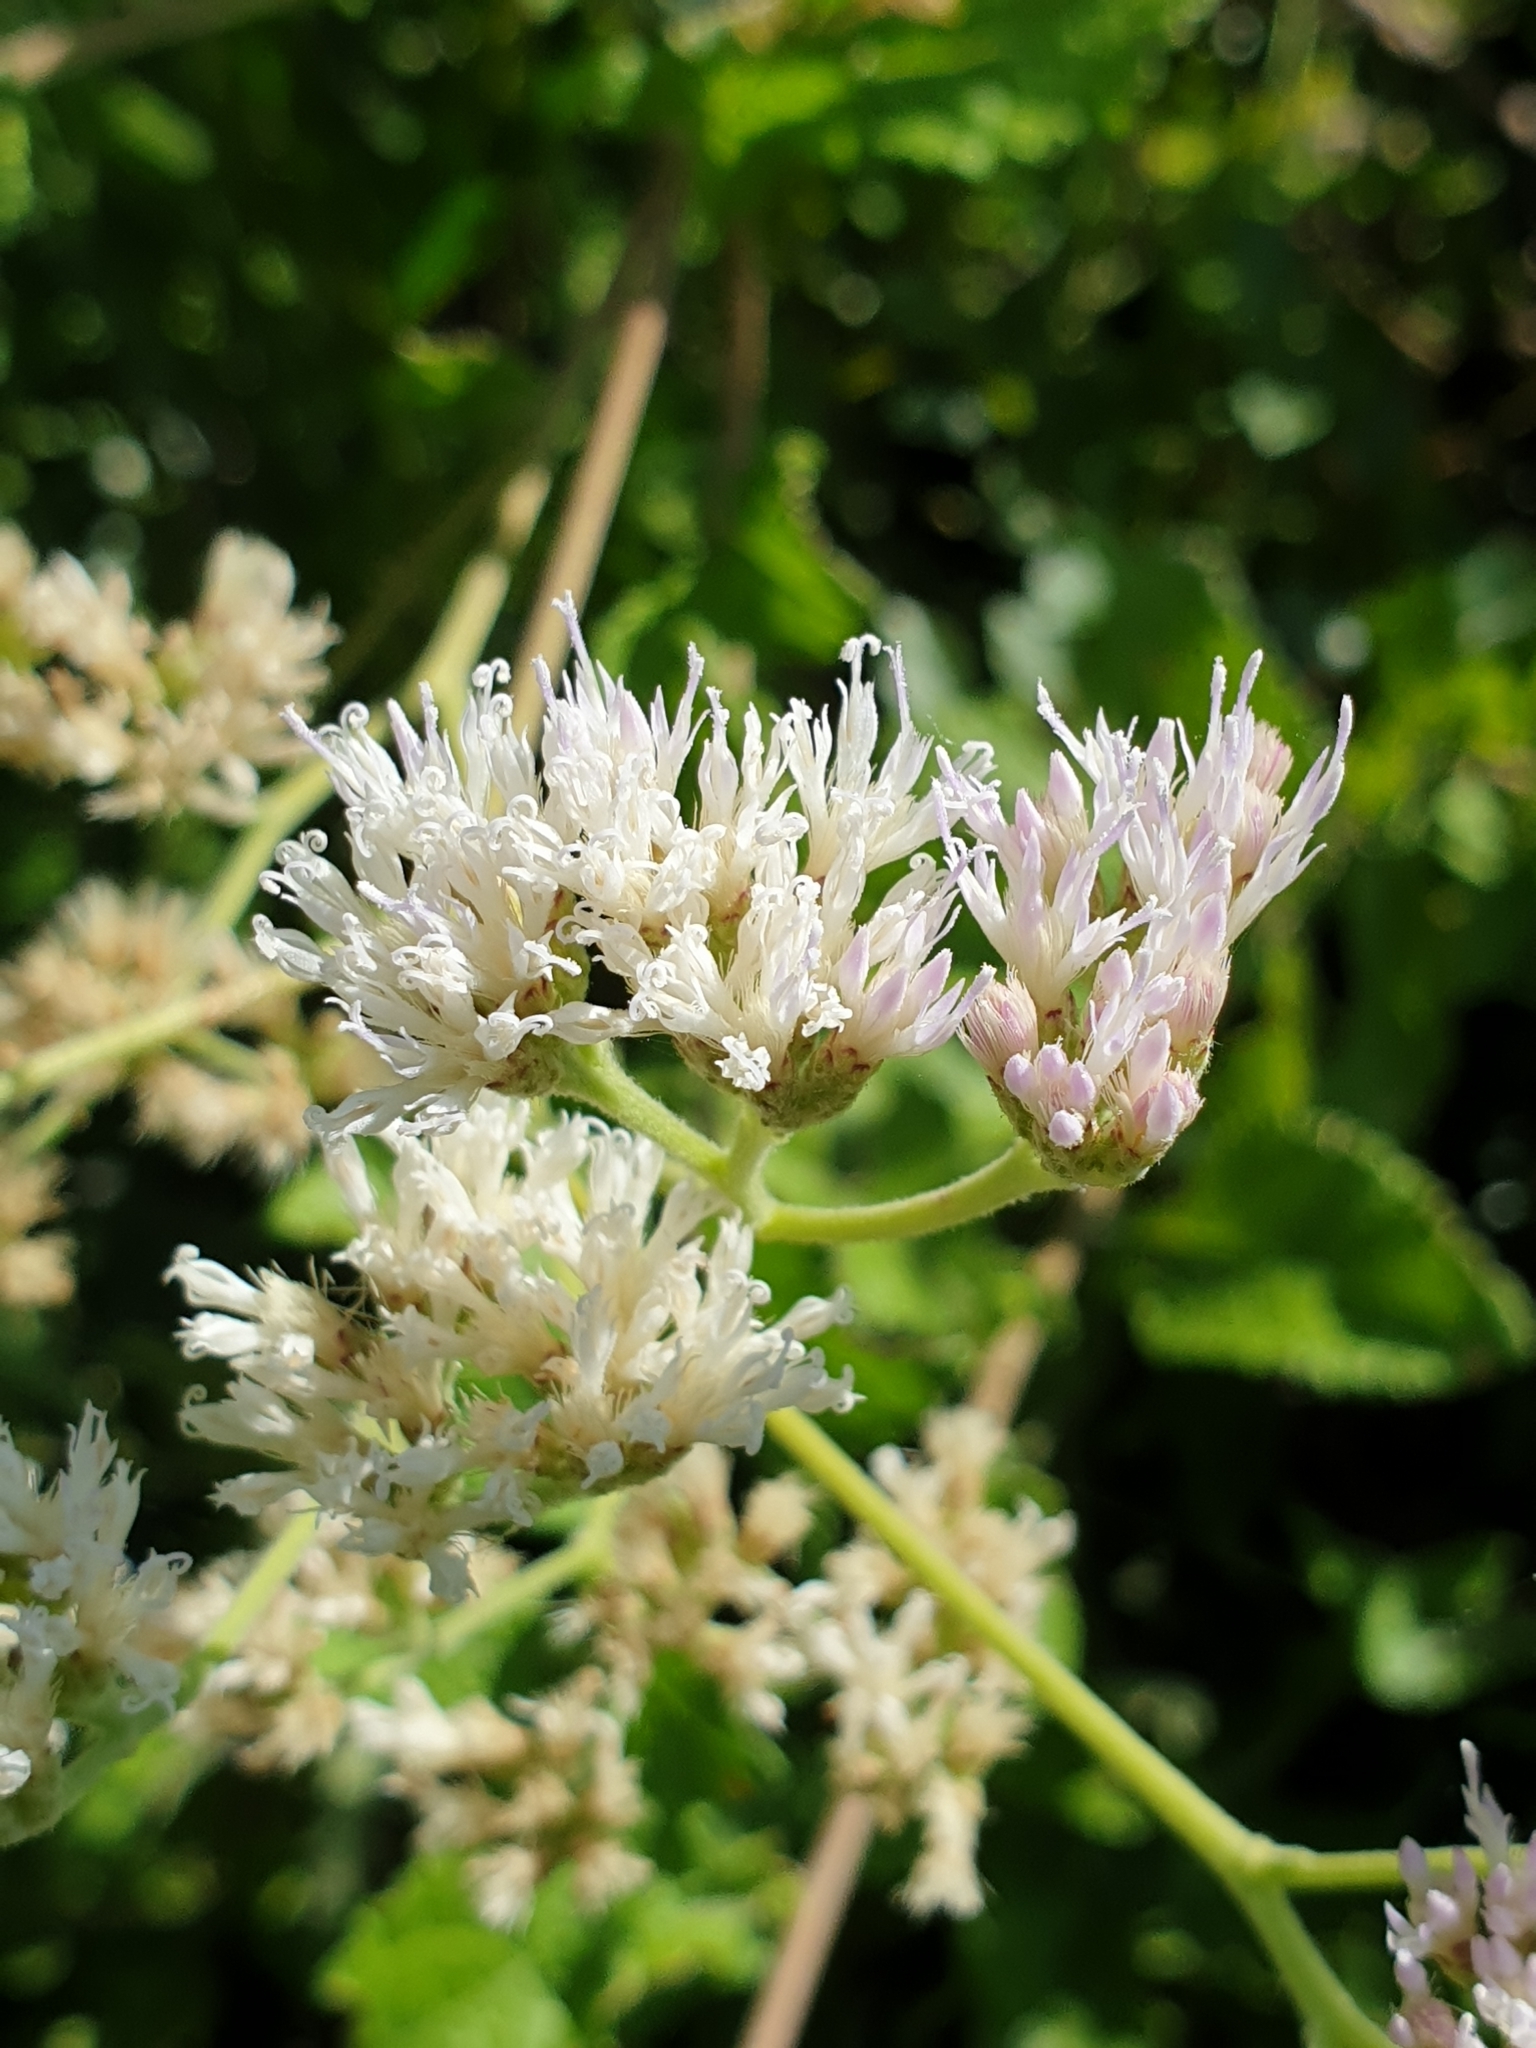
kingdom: Plantae
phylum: Tracheophyta
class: Magnoliopsida
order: Asterales
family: Asteraceae
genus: Jeffreycia
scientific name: Jeffreycia zeylanica
